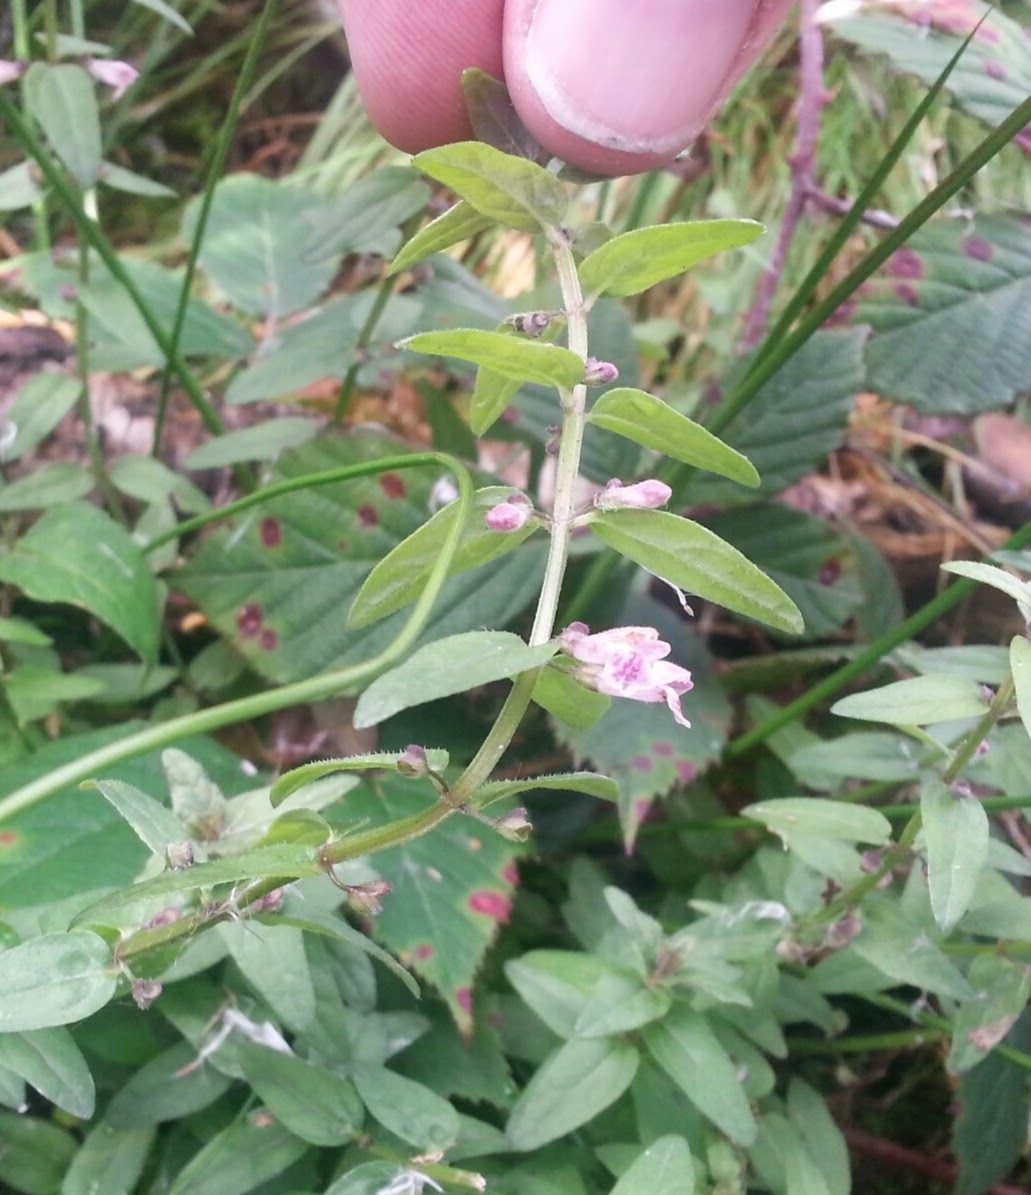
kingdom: Plantae
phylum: Tracheophyta
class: Magnoliopsida
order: Lamiales
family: Lamiaceae
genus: Scutellaria
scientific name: Scutellaria minor
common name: Lesser skullcap
